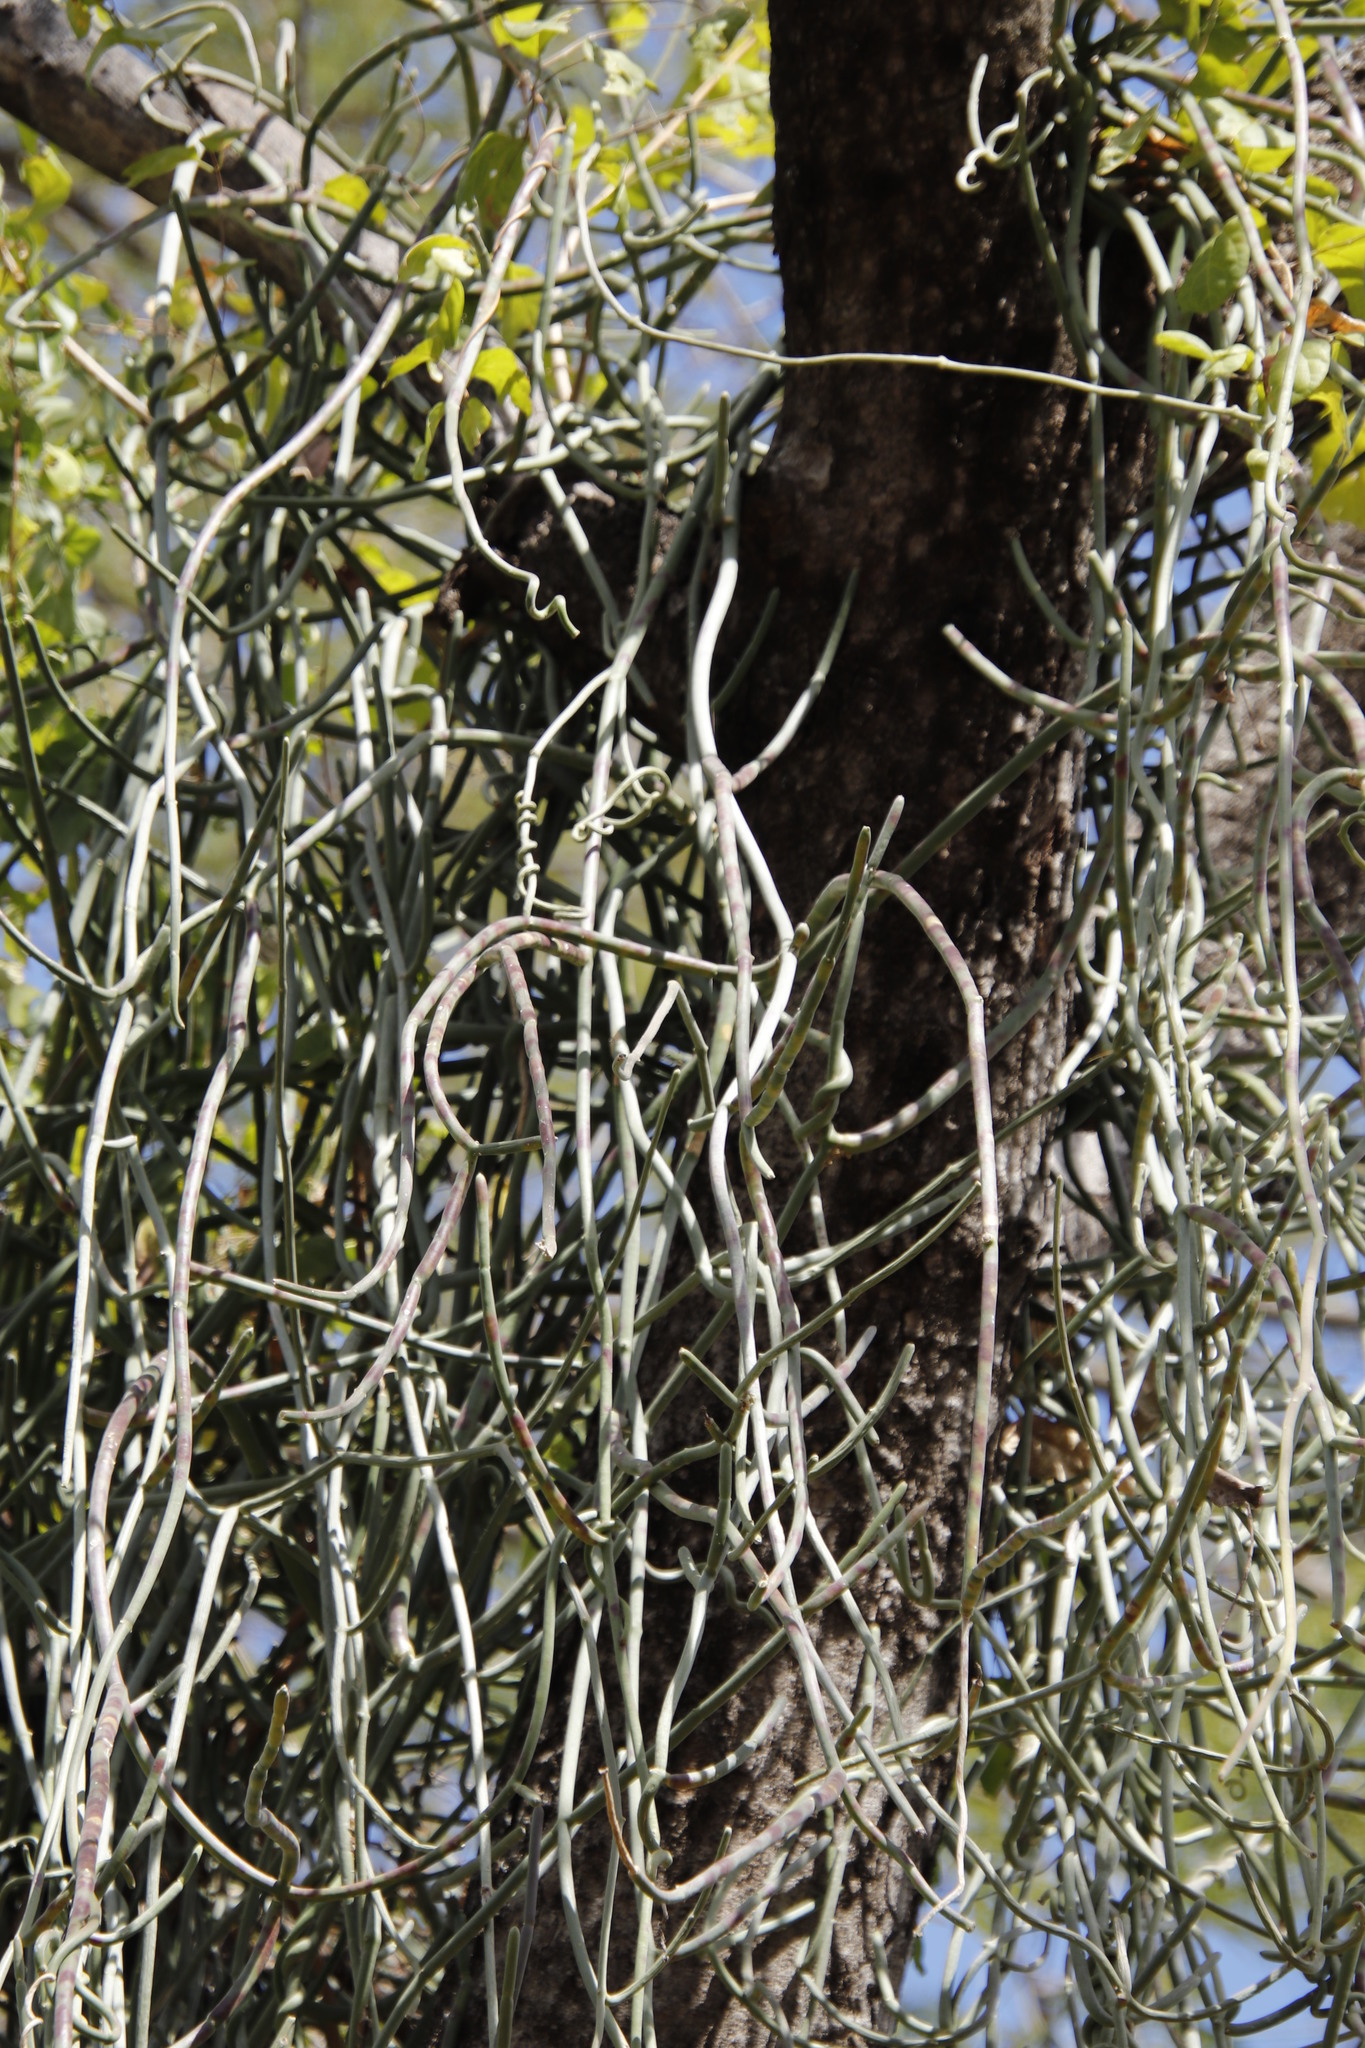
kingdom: Plantae
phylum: Tracheophyta
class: Magnoliopsida
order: Myrtales
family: Combretaceae
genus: Combretum
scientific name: Combretum mossambicense
